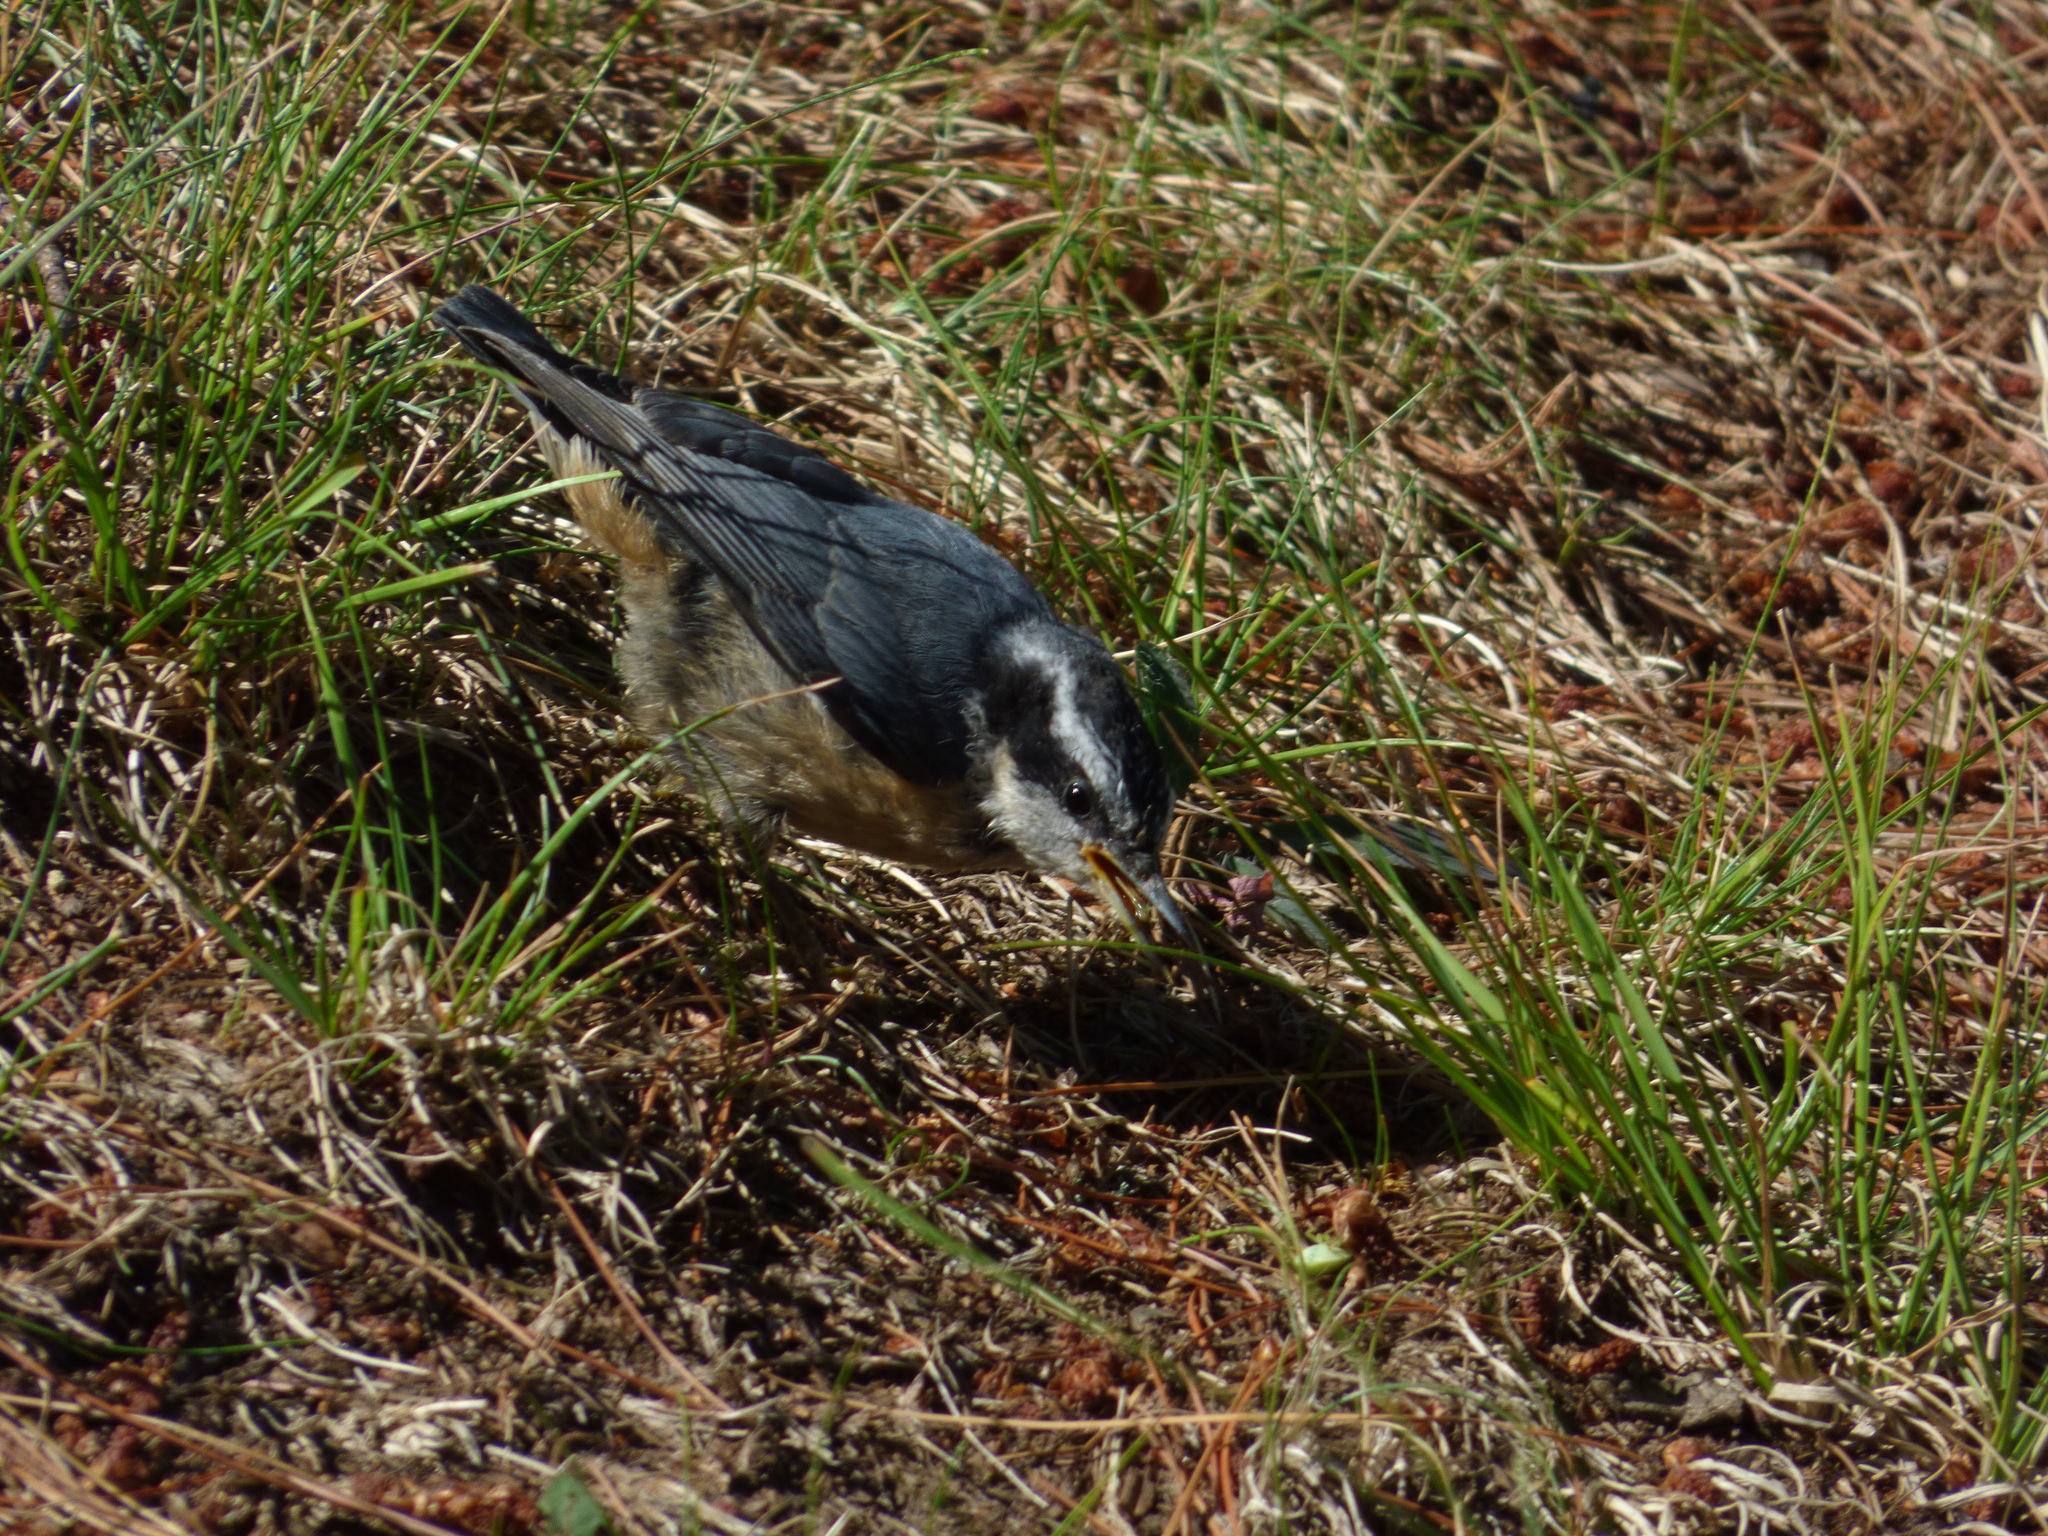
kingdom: Animalia
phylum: Chordata
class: Aves
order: Passeriformes
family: Sittidae
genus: Sitta
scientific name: Sitta canadensis
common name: Red-breasted nuthatch
